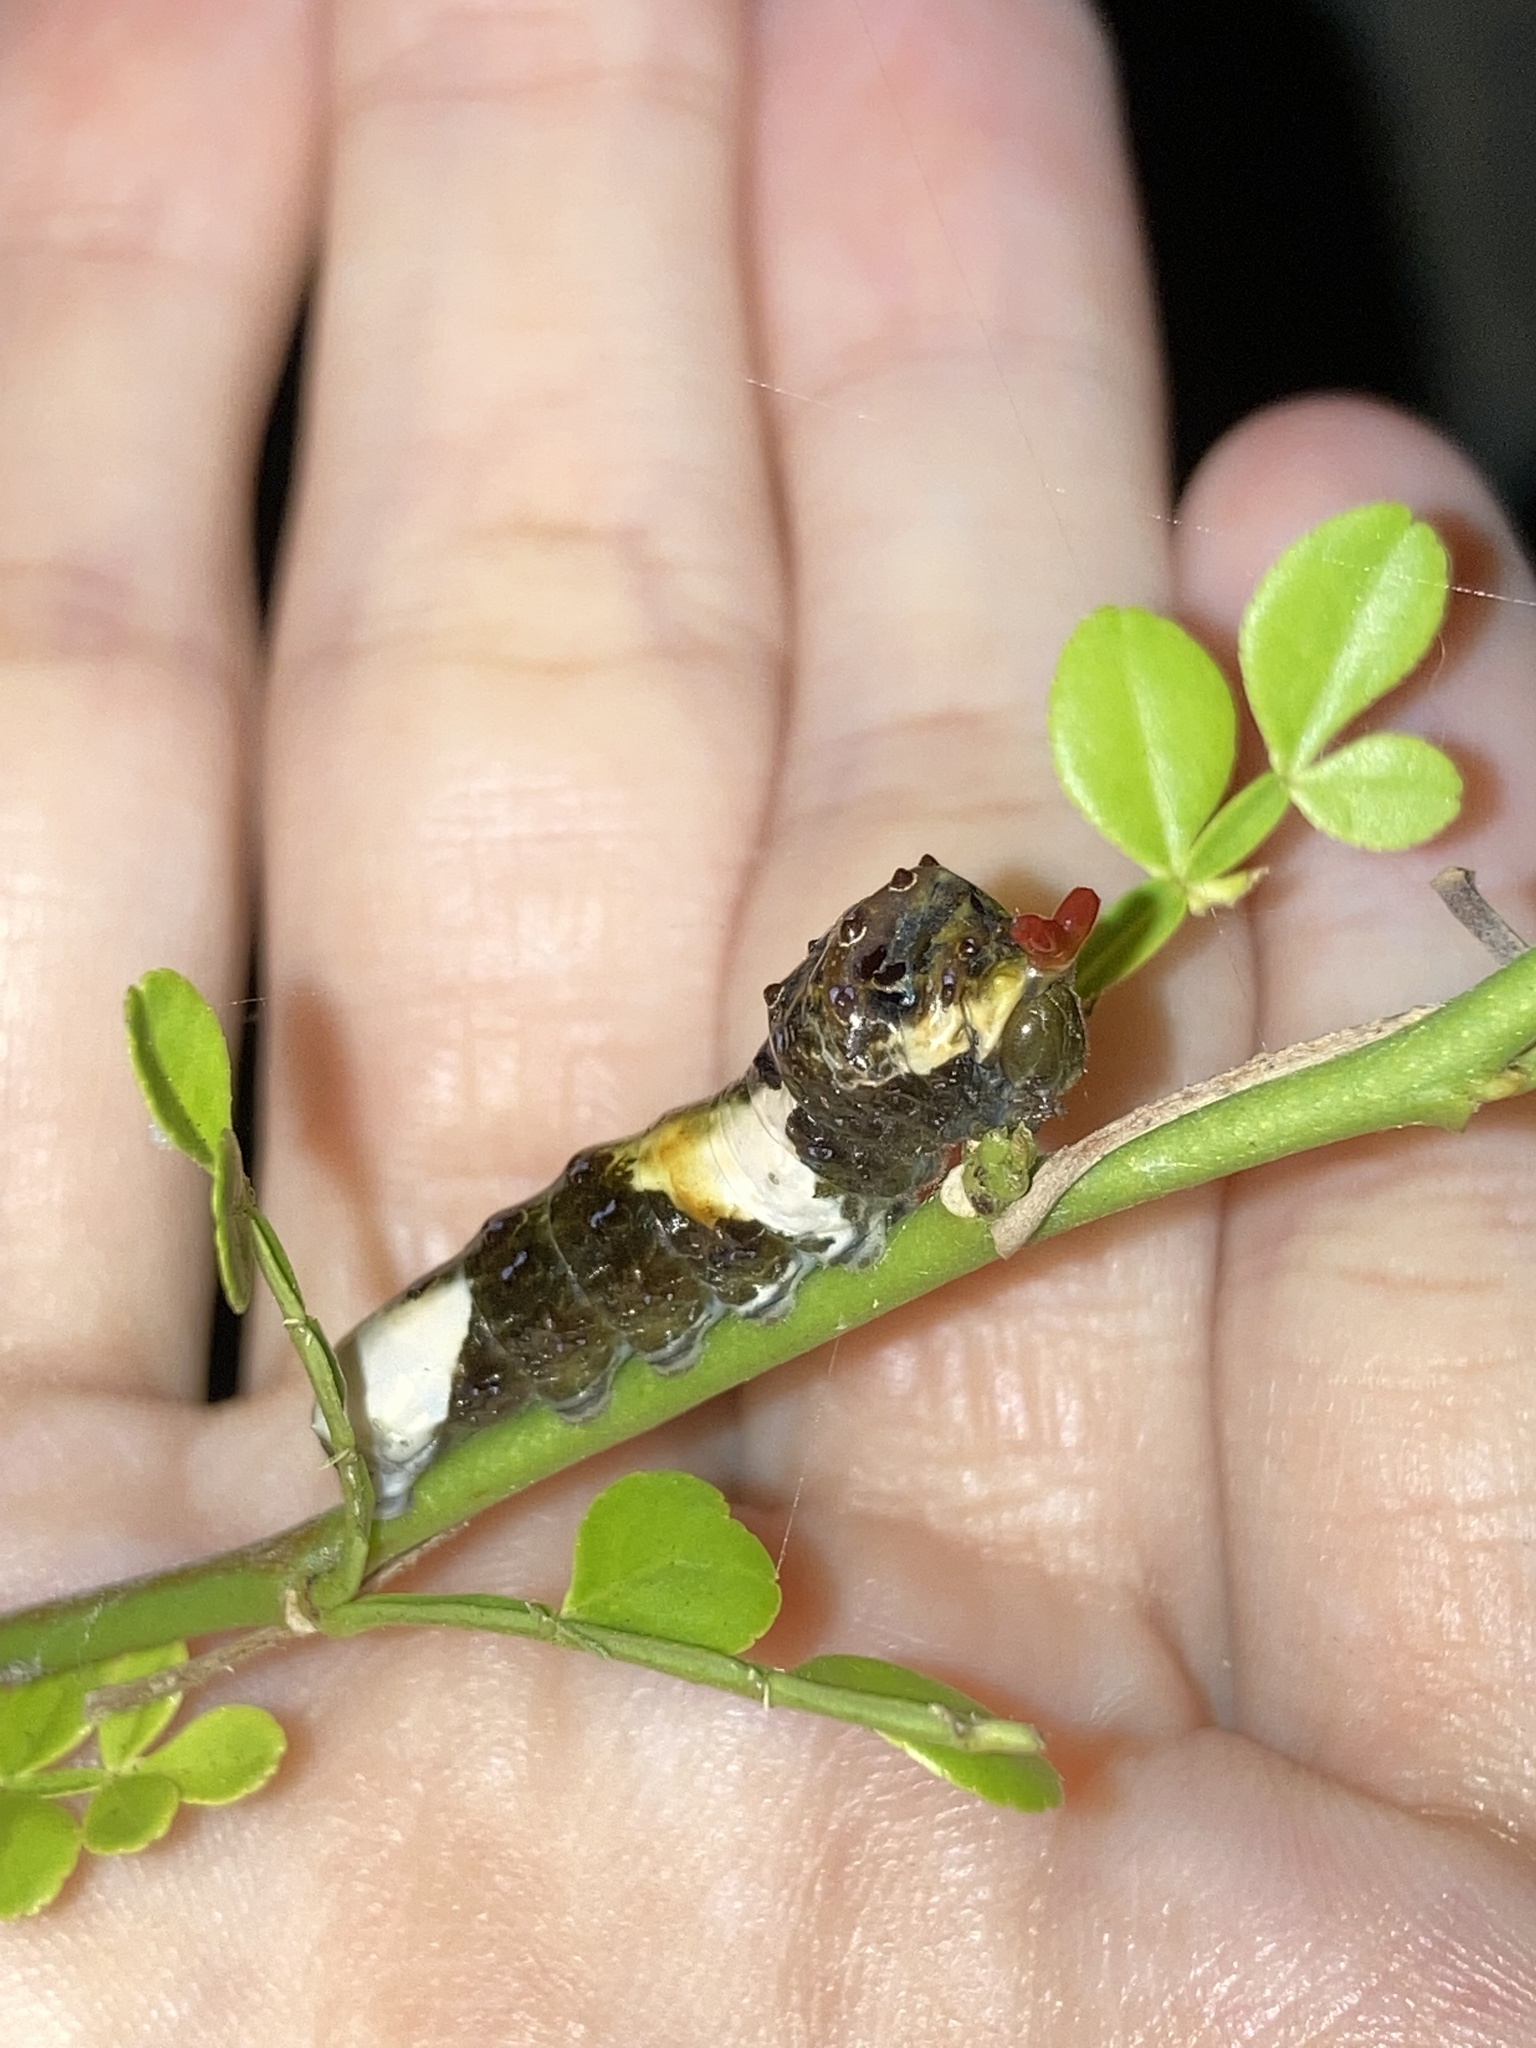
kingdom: Animalia
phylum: Arthropoda
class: Insecta
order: Lepidoptera
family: Papilionidae
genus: Papilio
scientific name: Papilio cresphontes
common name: Giant swallowtail
